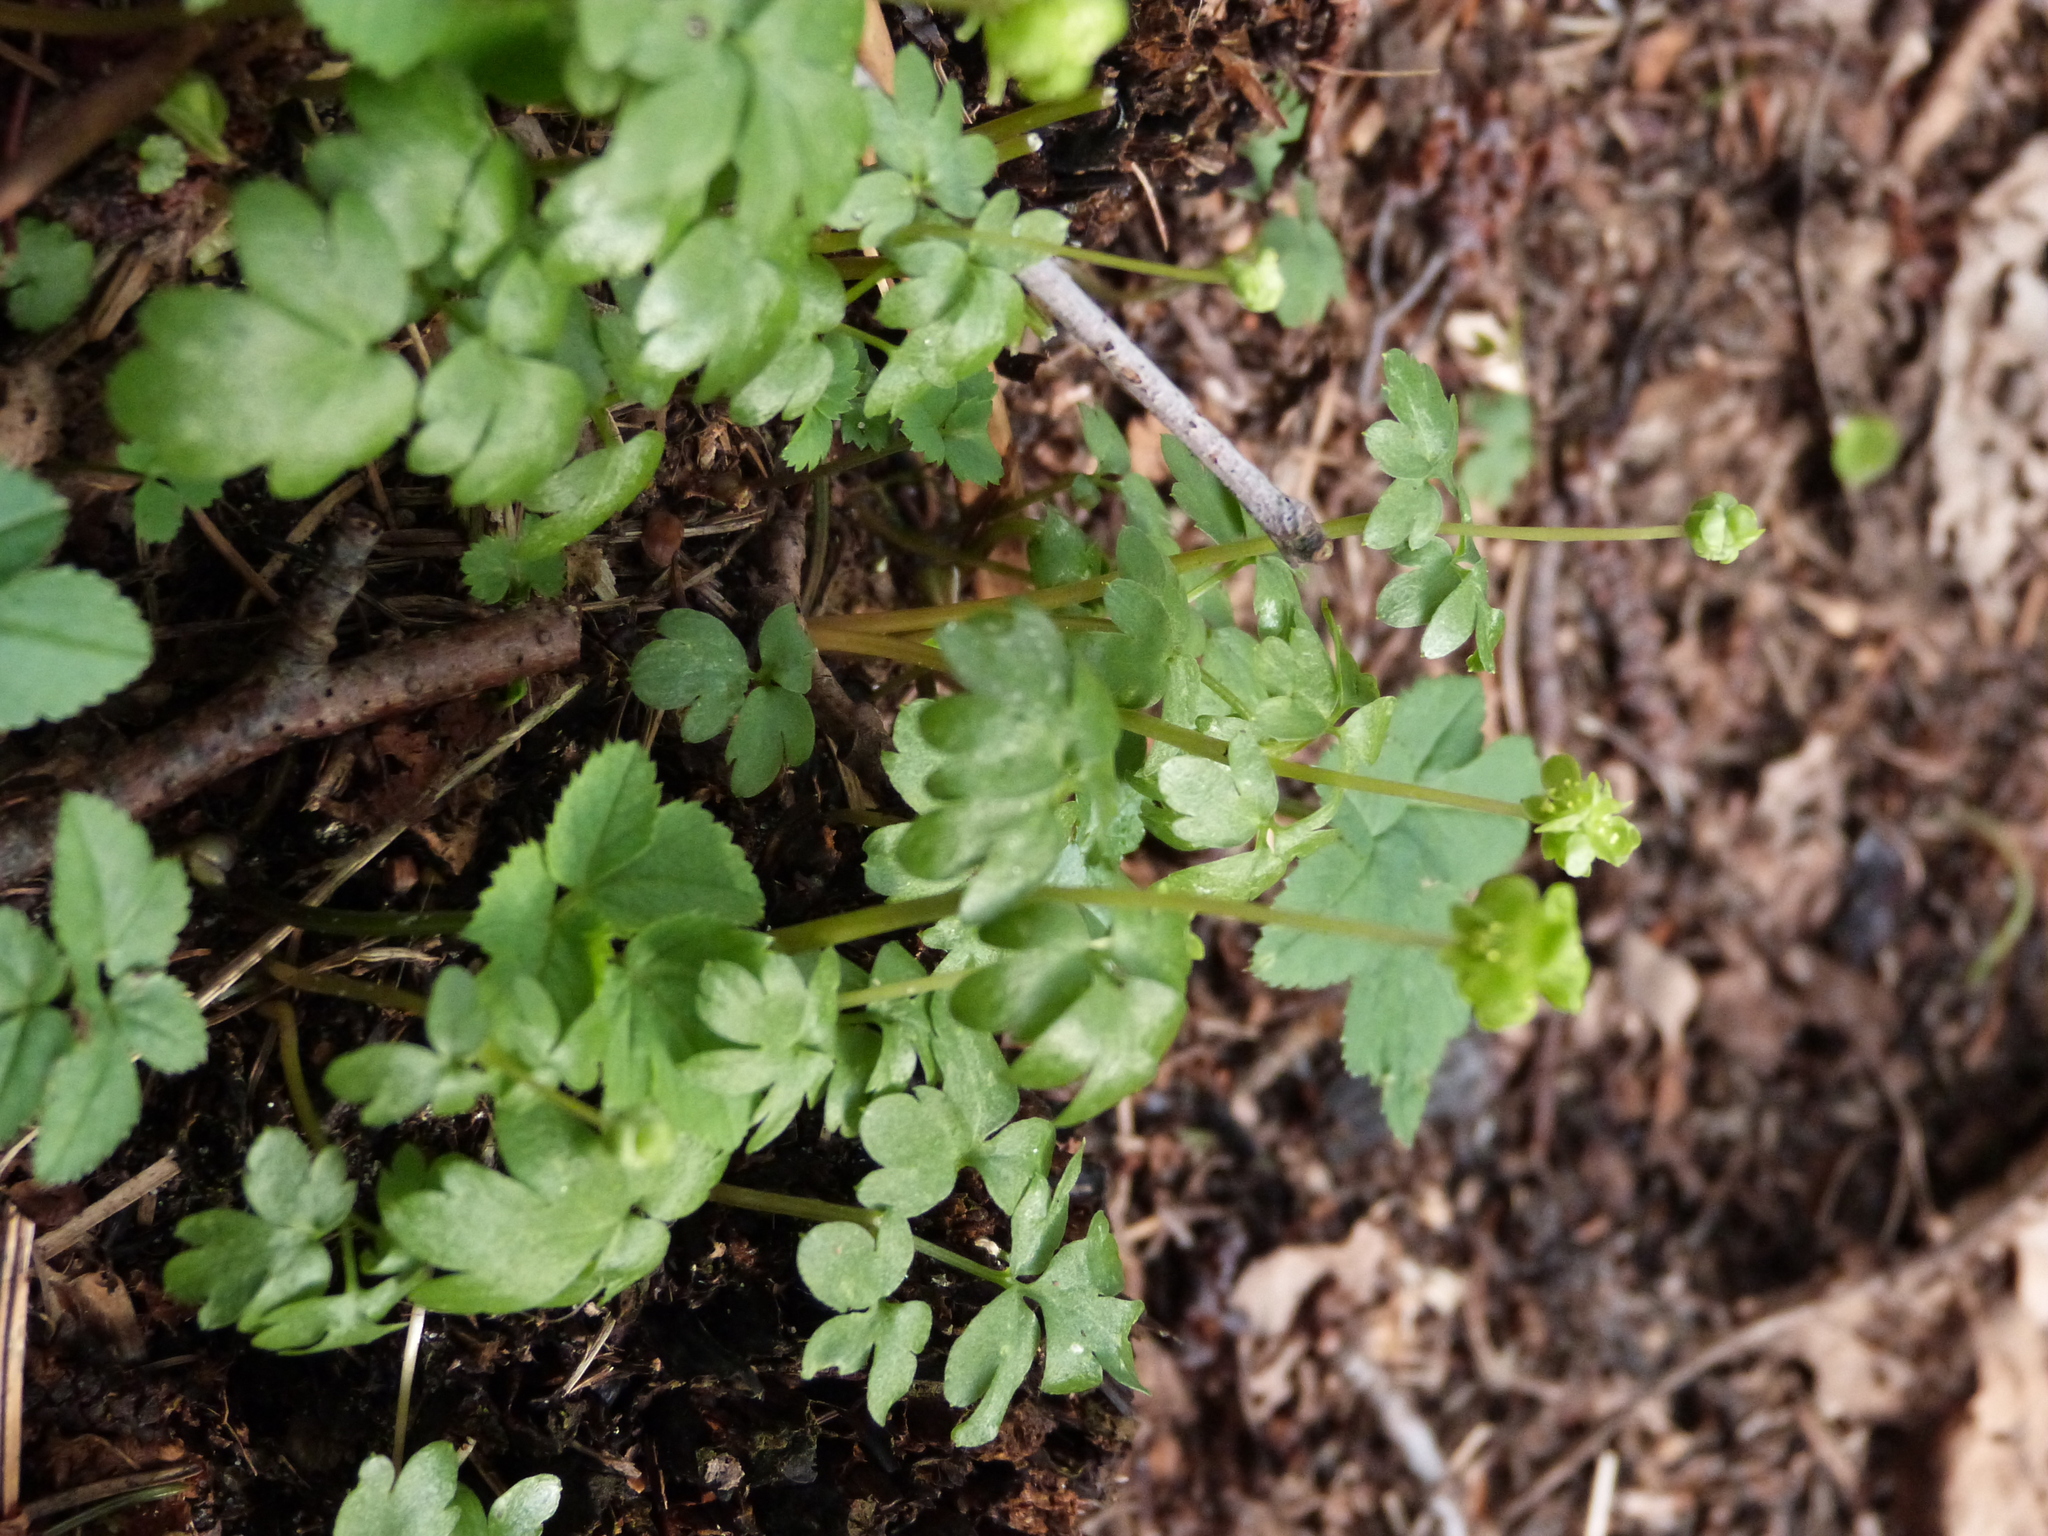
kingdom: Plantae
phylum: Tracheophyta
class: Magnoliopsida
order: Dipsacales
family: Viburnaceae
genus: Adoxa
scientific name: Adoxa moschatellina
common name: Moschatel
